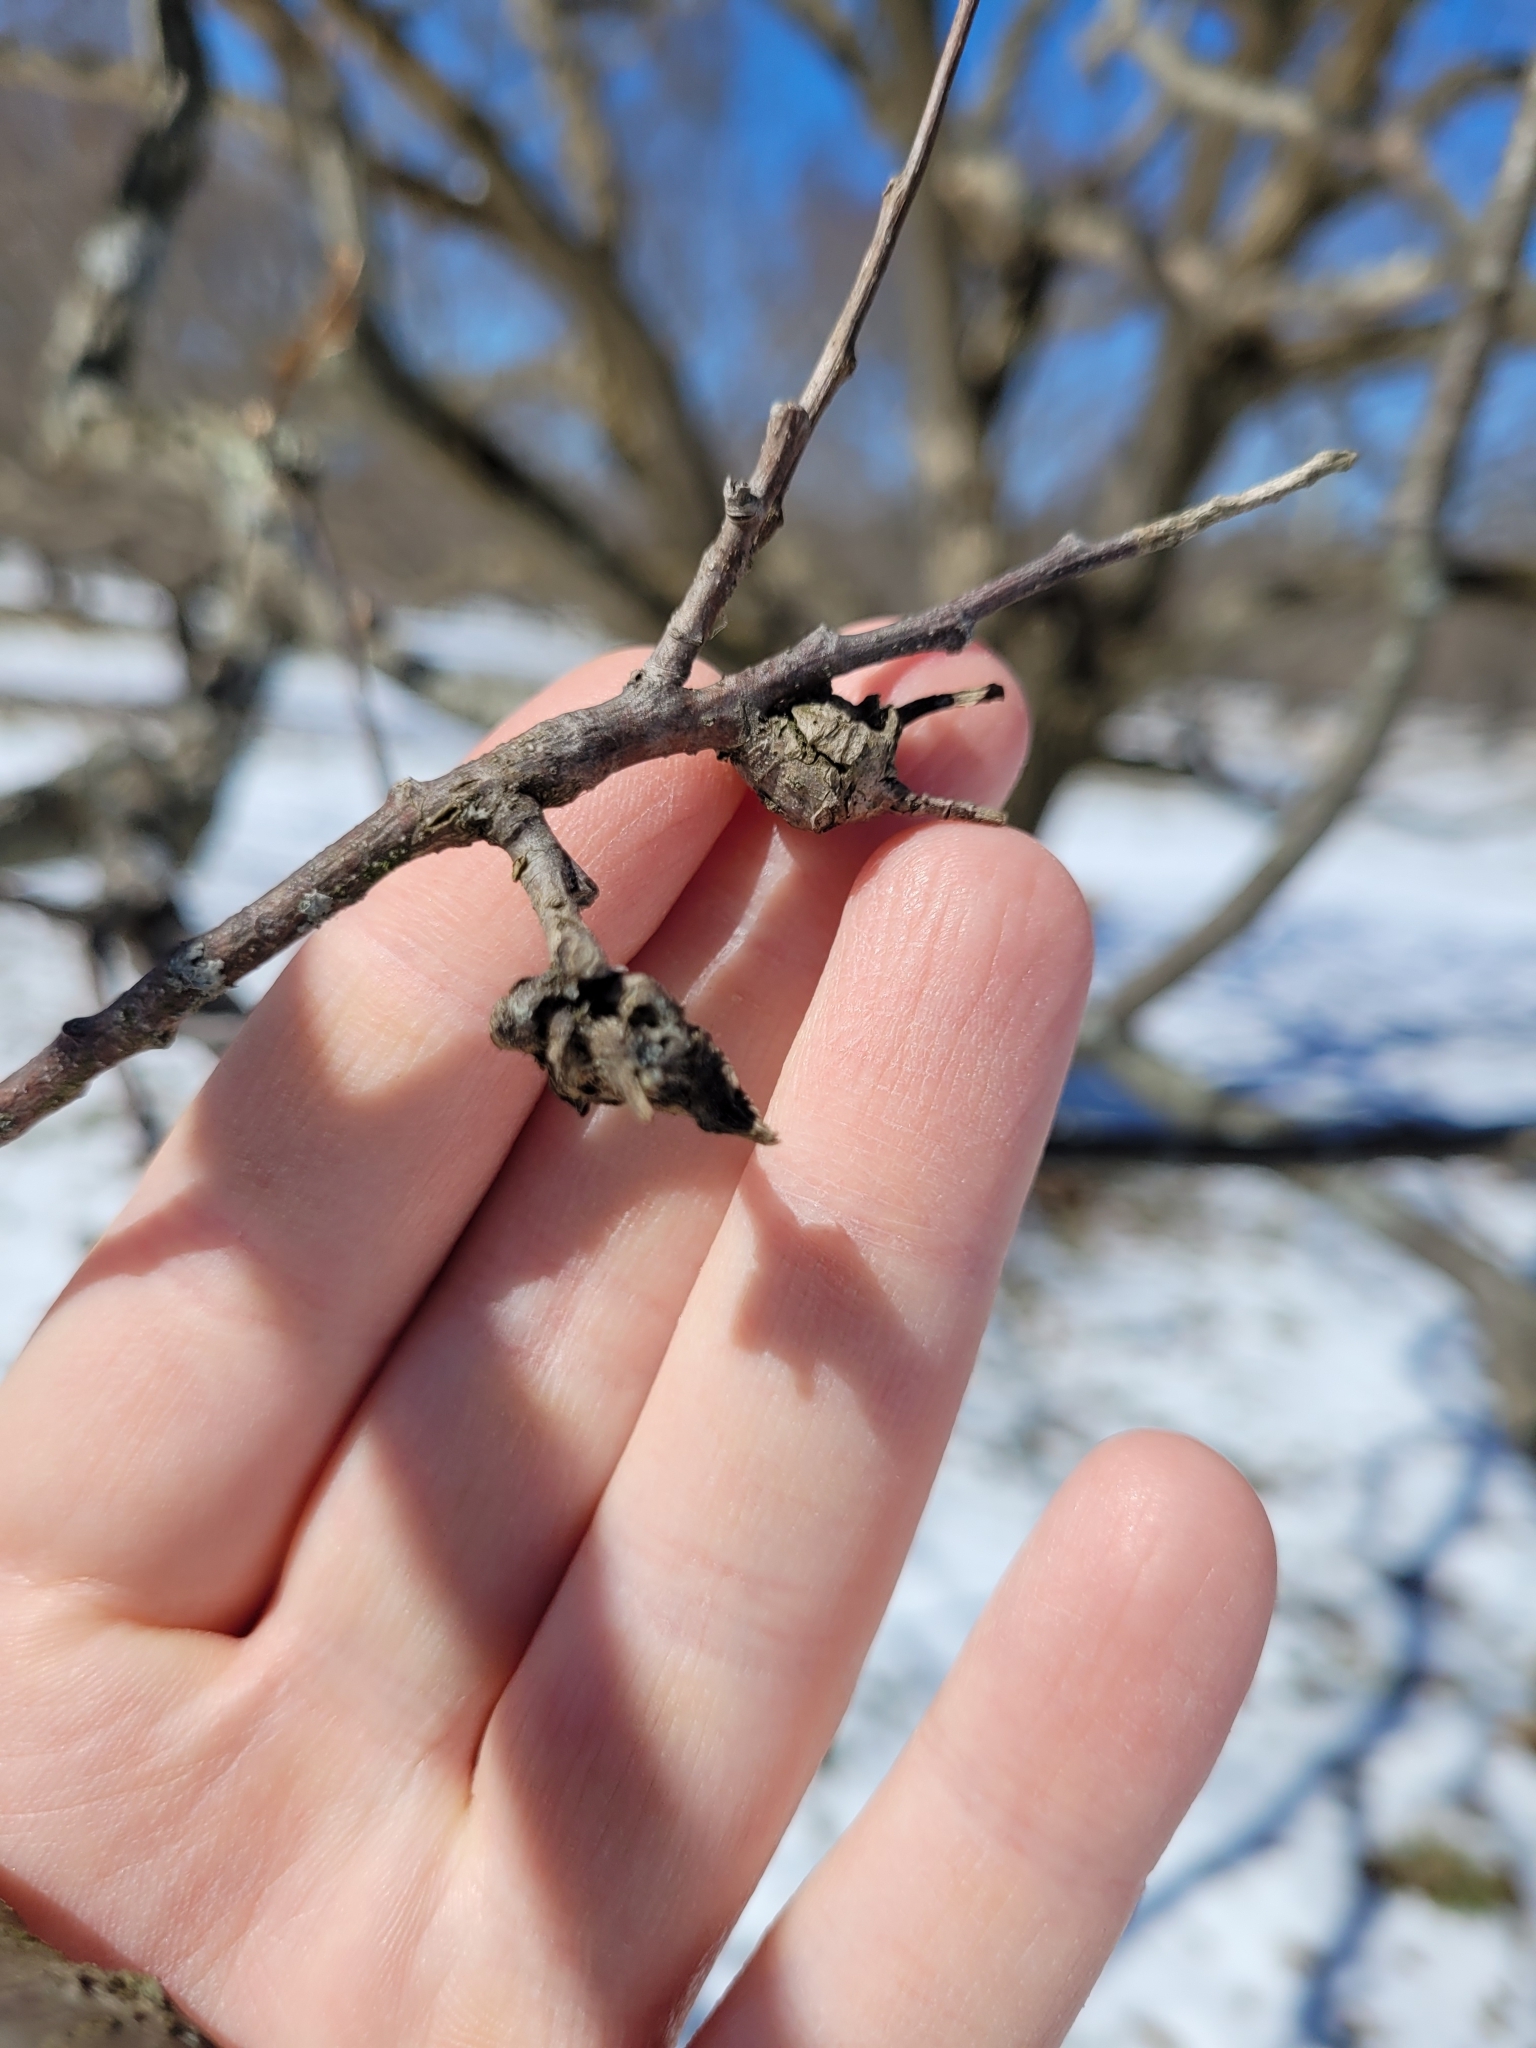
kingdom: Animalia
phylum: Arthropoda
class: Insecta
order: Hymenoptera
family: Cynipidae
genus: Dryocosmus
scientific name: Dryocosmus kuriphilus
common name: Asian chestnut gall wasp
